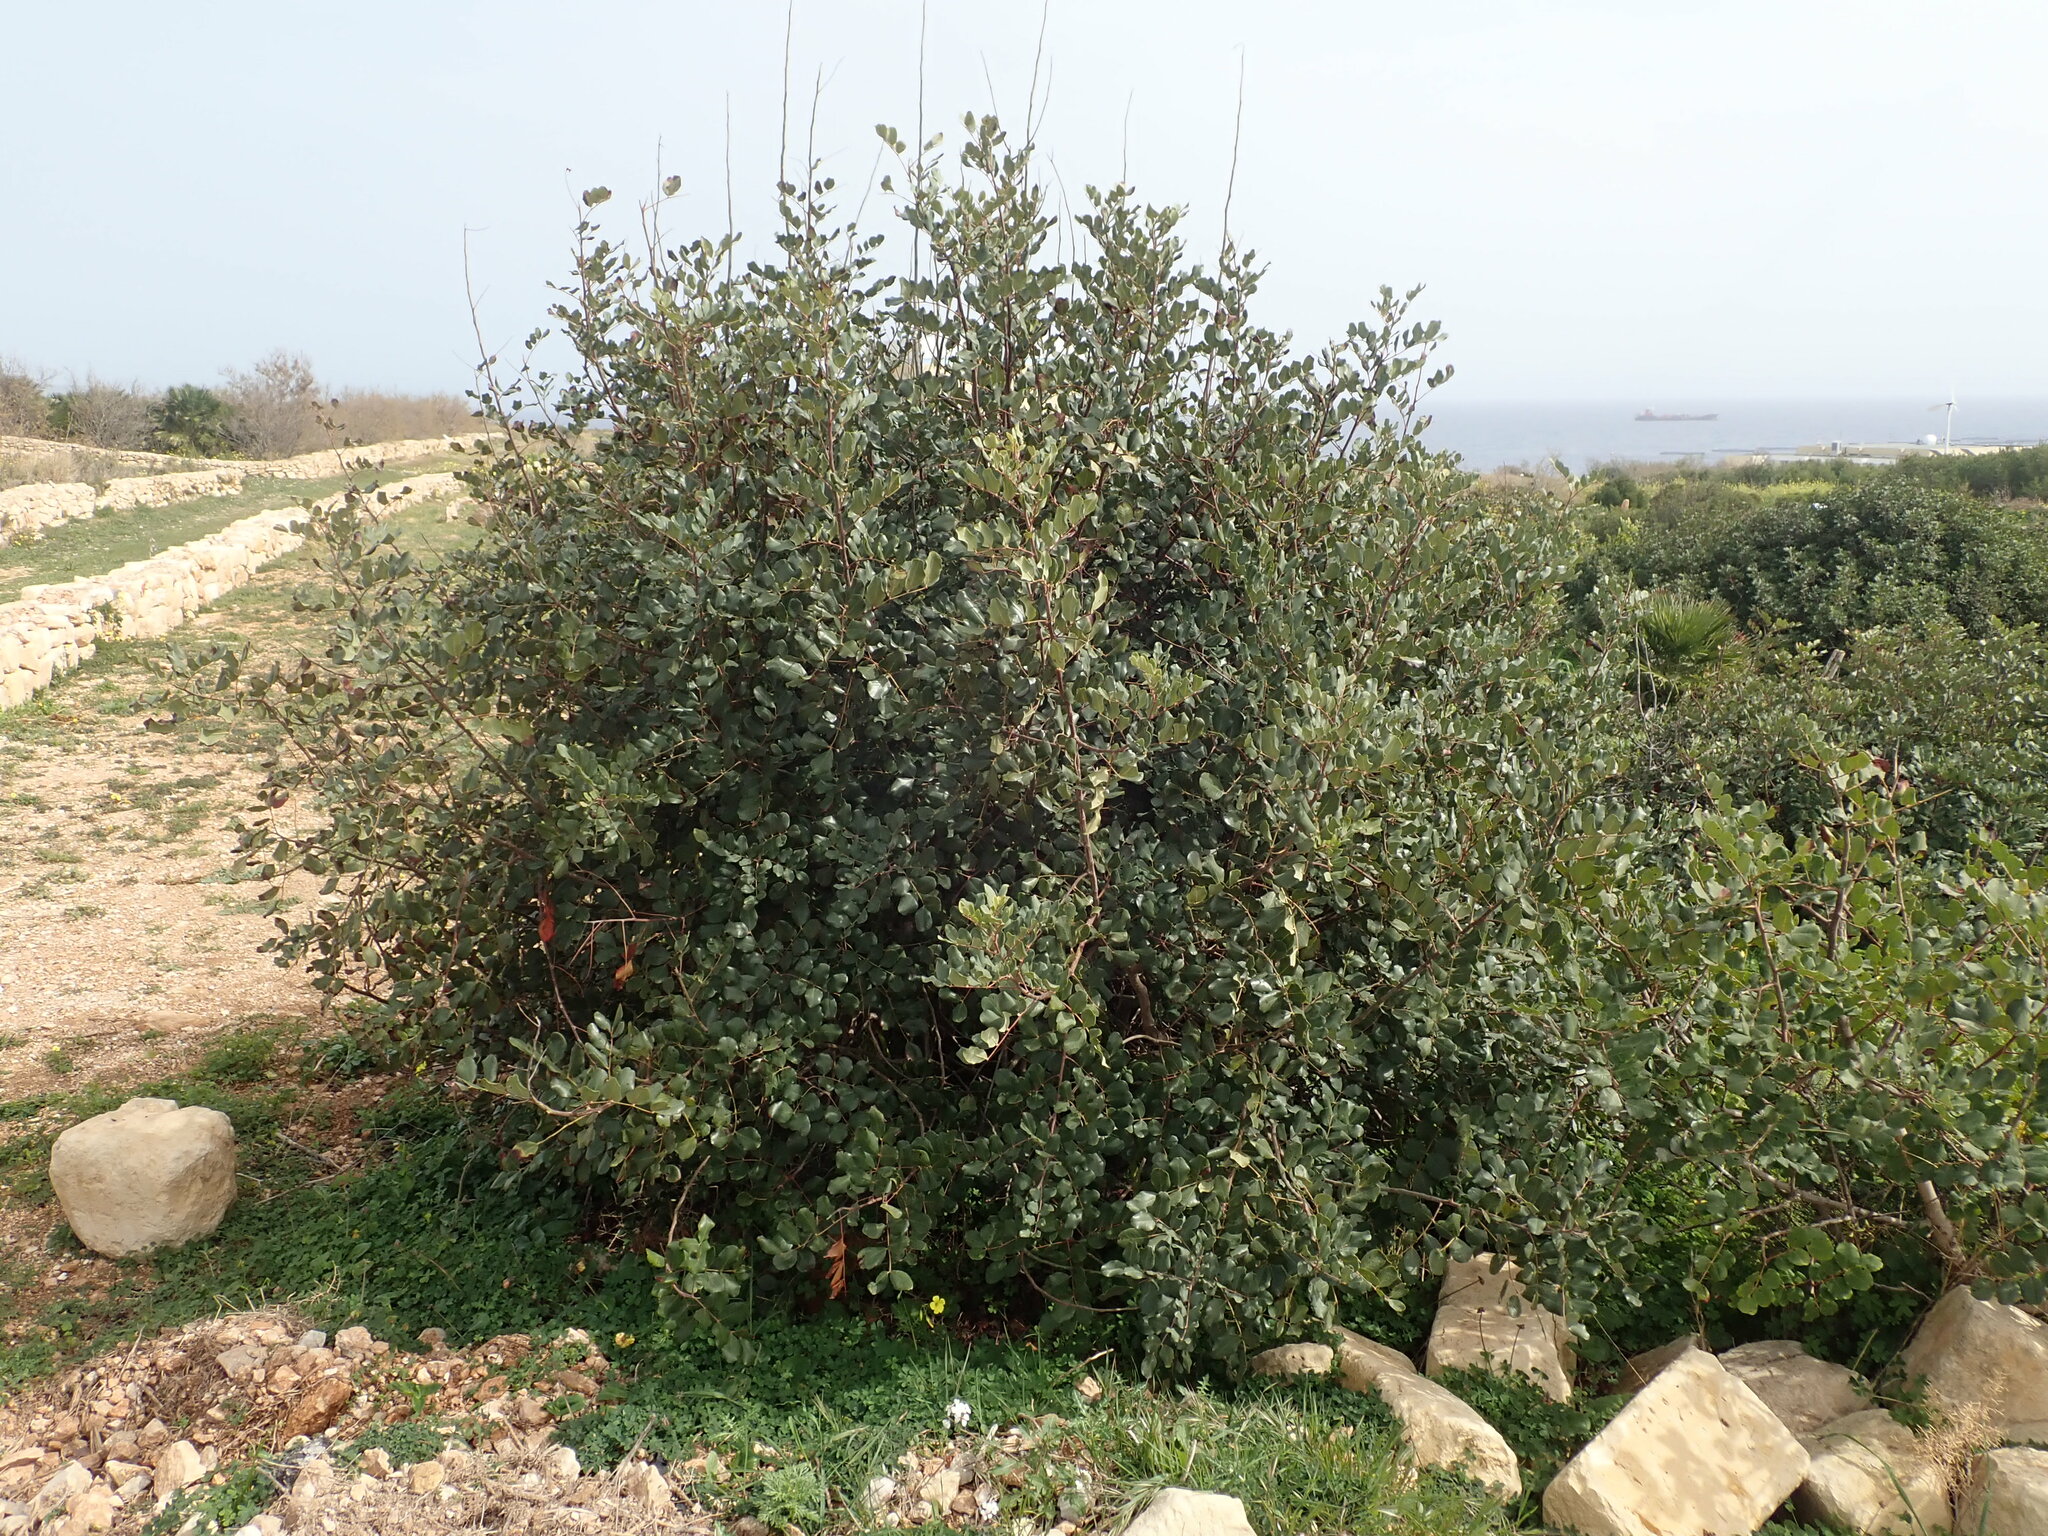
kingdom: Plantae
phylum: Tracheophyta
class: Magnoliopsida
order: Fabales
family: Fabaceae
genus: Ceratonia
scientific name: Ceratonia siliqua
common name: Carob
